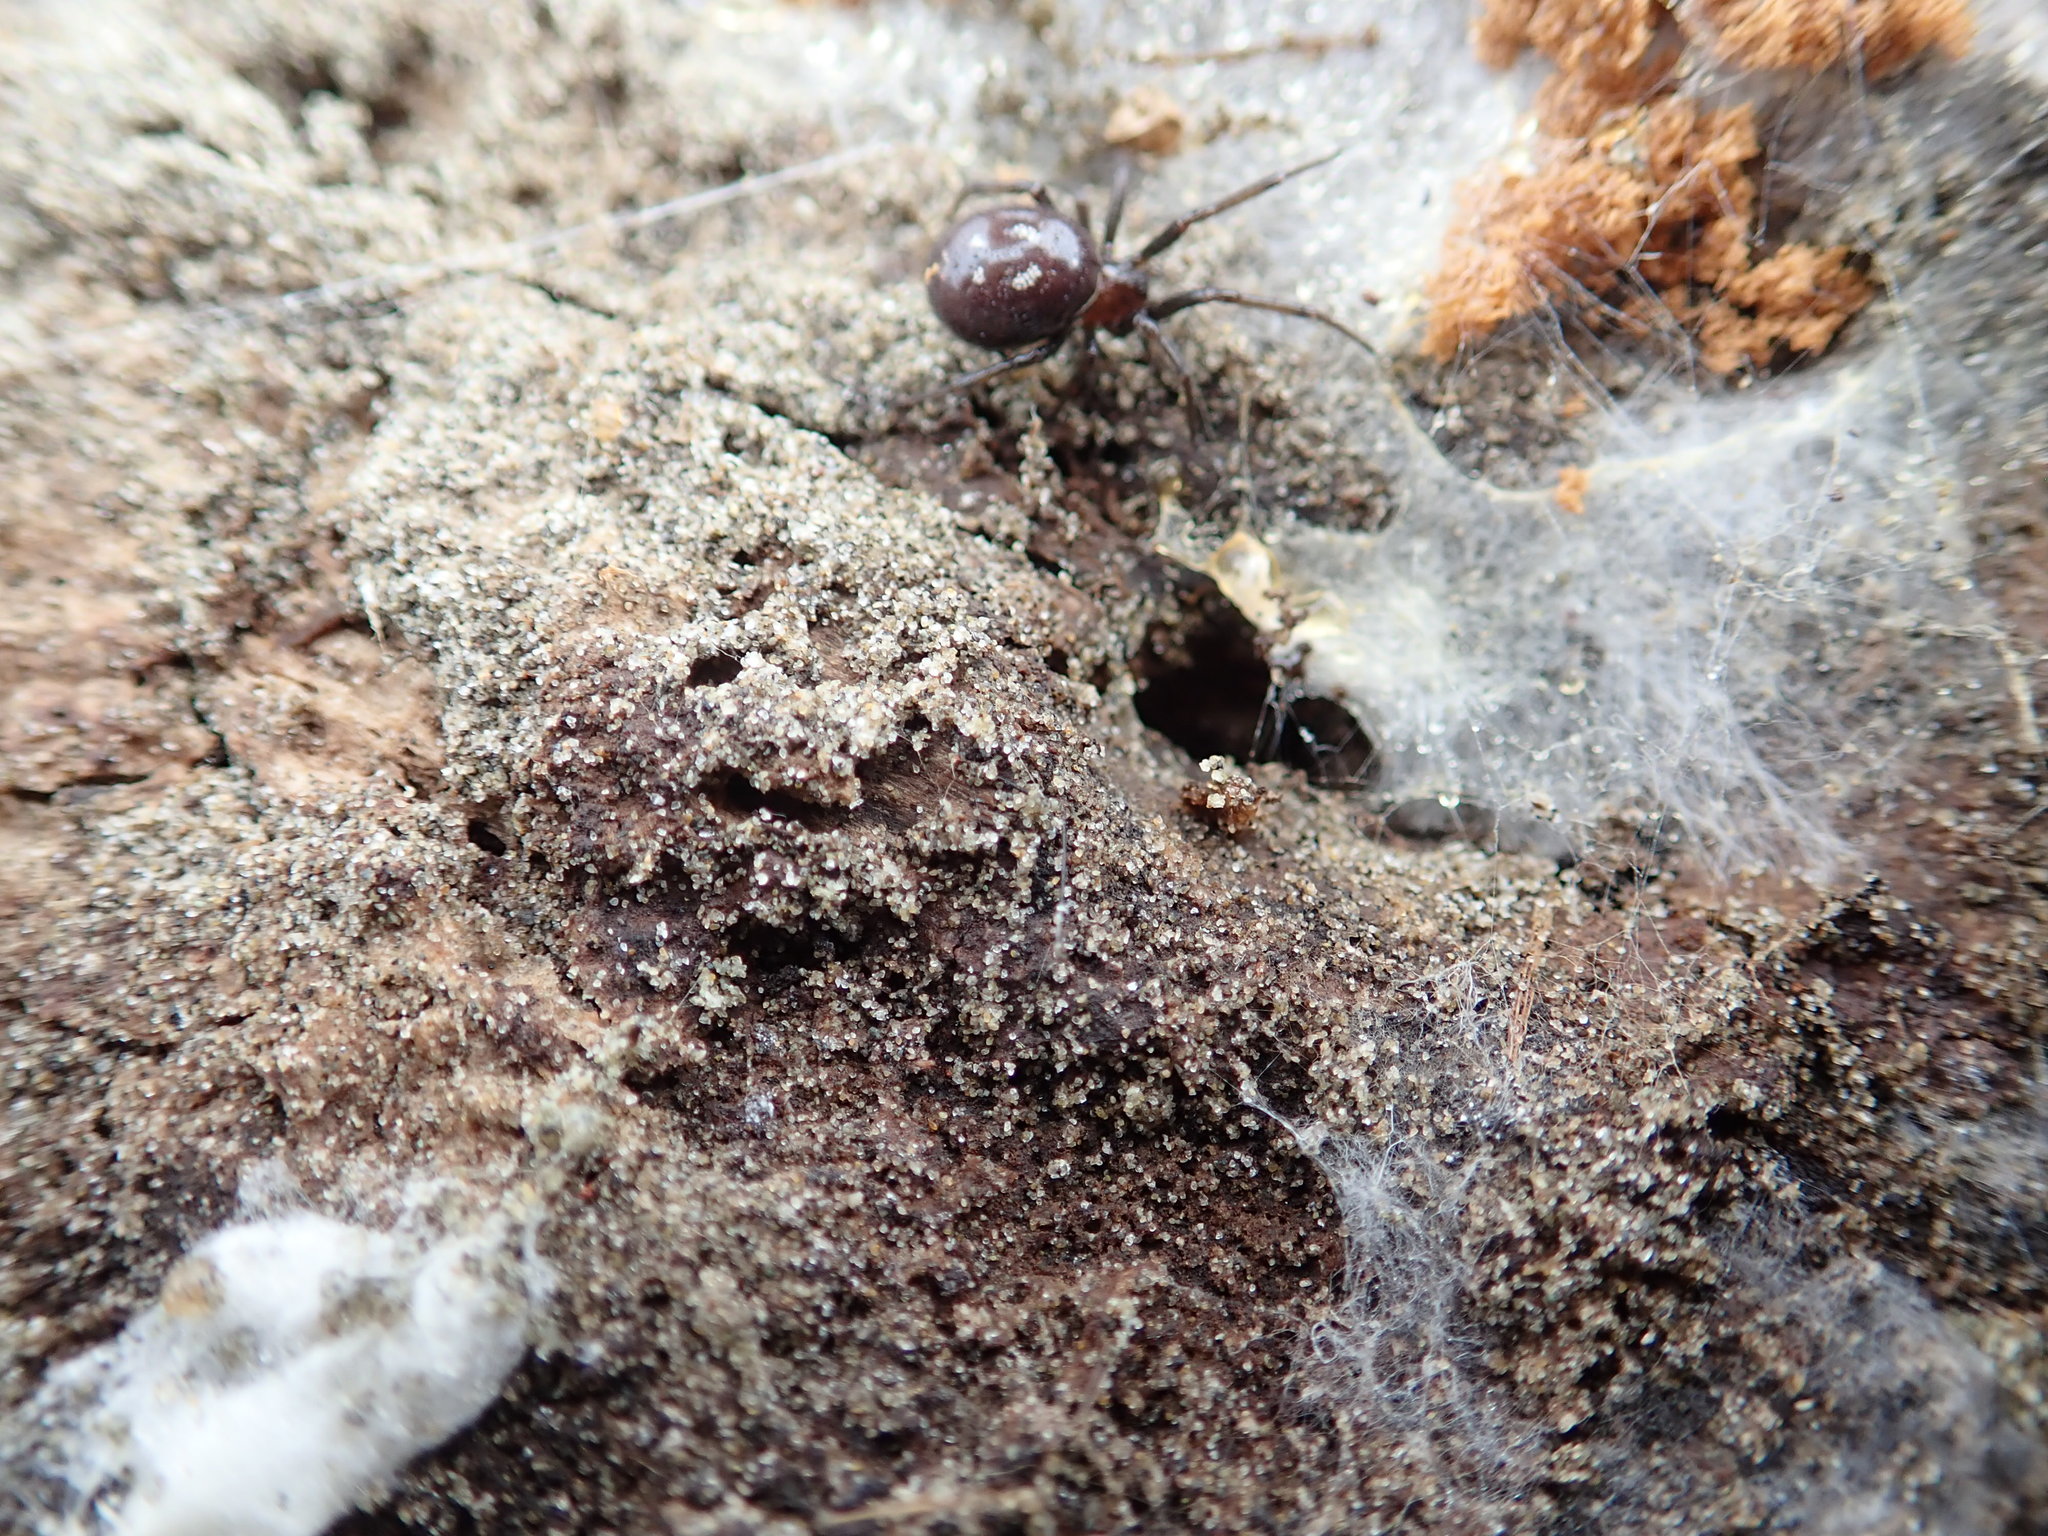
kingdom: Animalia
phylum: Arthropoda
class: Arachnida
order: Araneae
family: Theridiidae
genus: Steatoda
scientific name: Steatoda capensis
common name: Cobweb weaver
